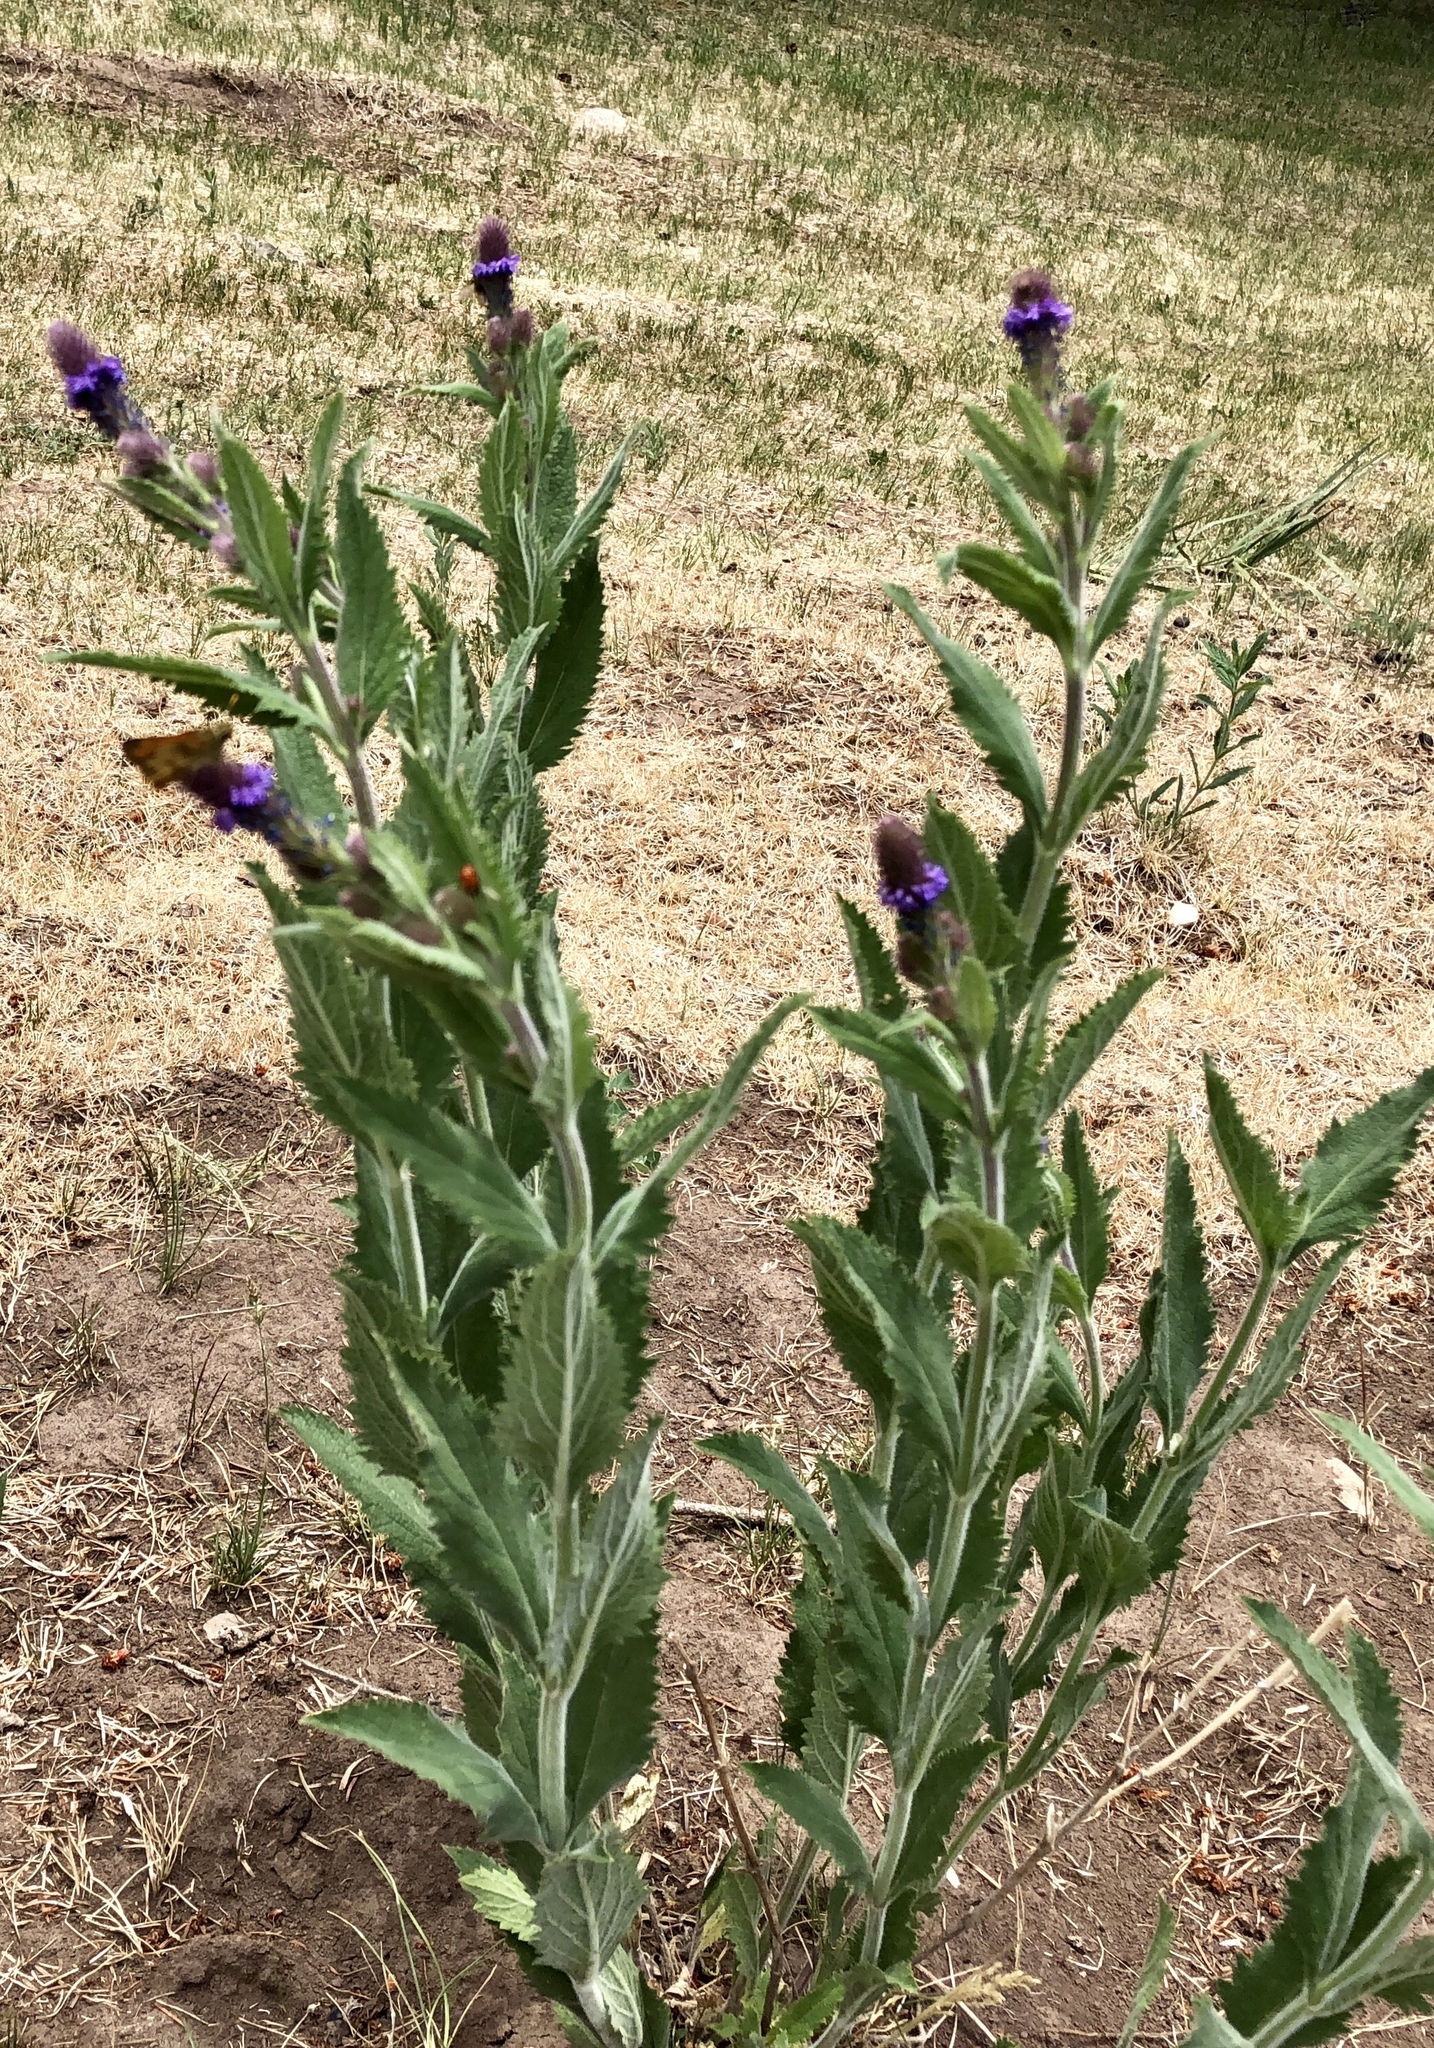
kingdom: Plantae
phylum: Tracheophyta
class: Magnoliopsida
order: Lamiales
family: Verbenaceae
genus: Verbena
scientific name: Verbena macdougalii
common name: New mexico vervain
